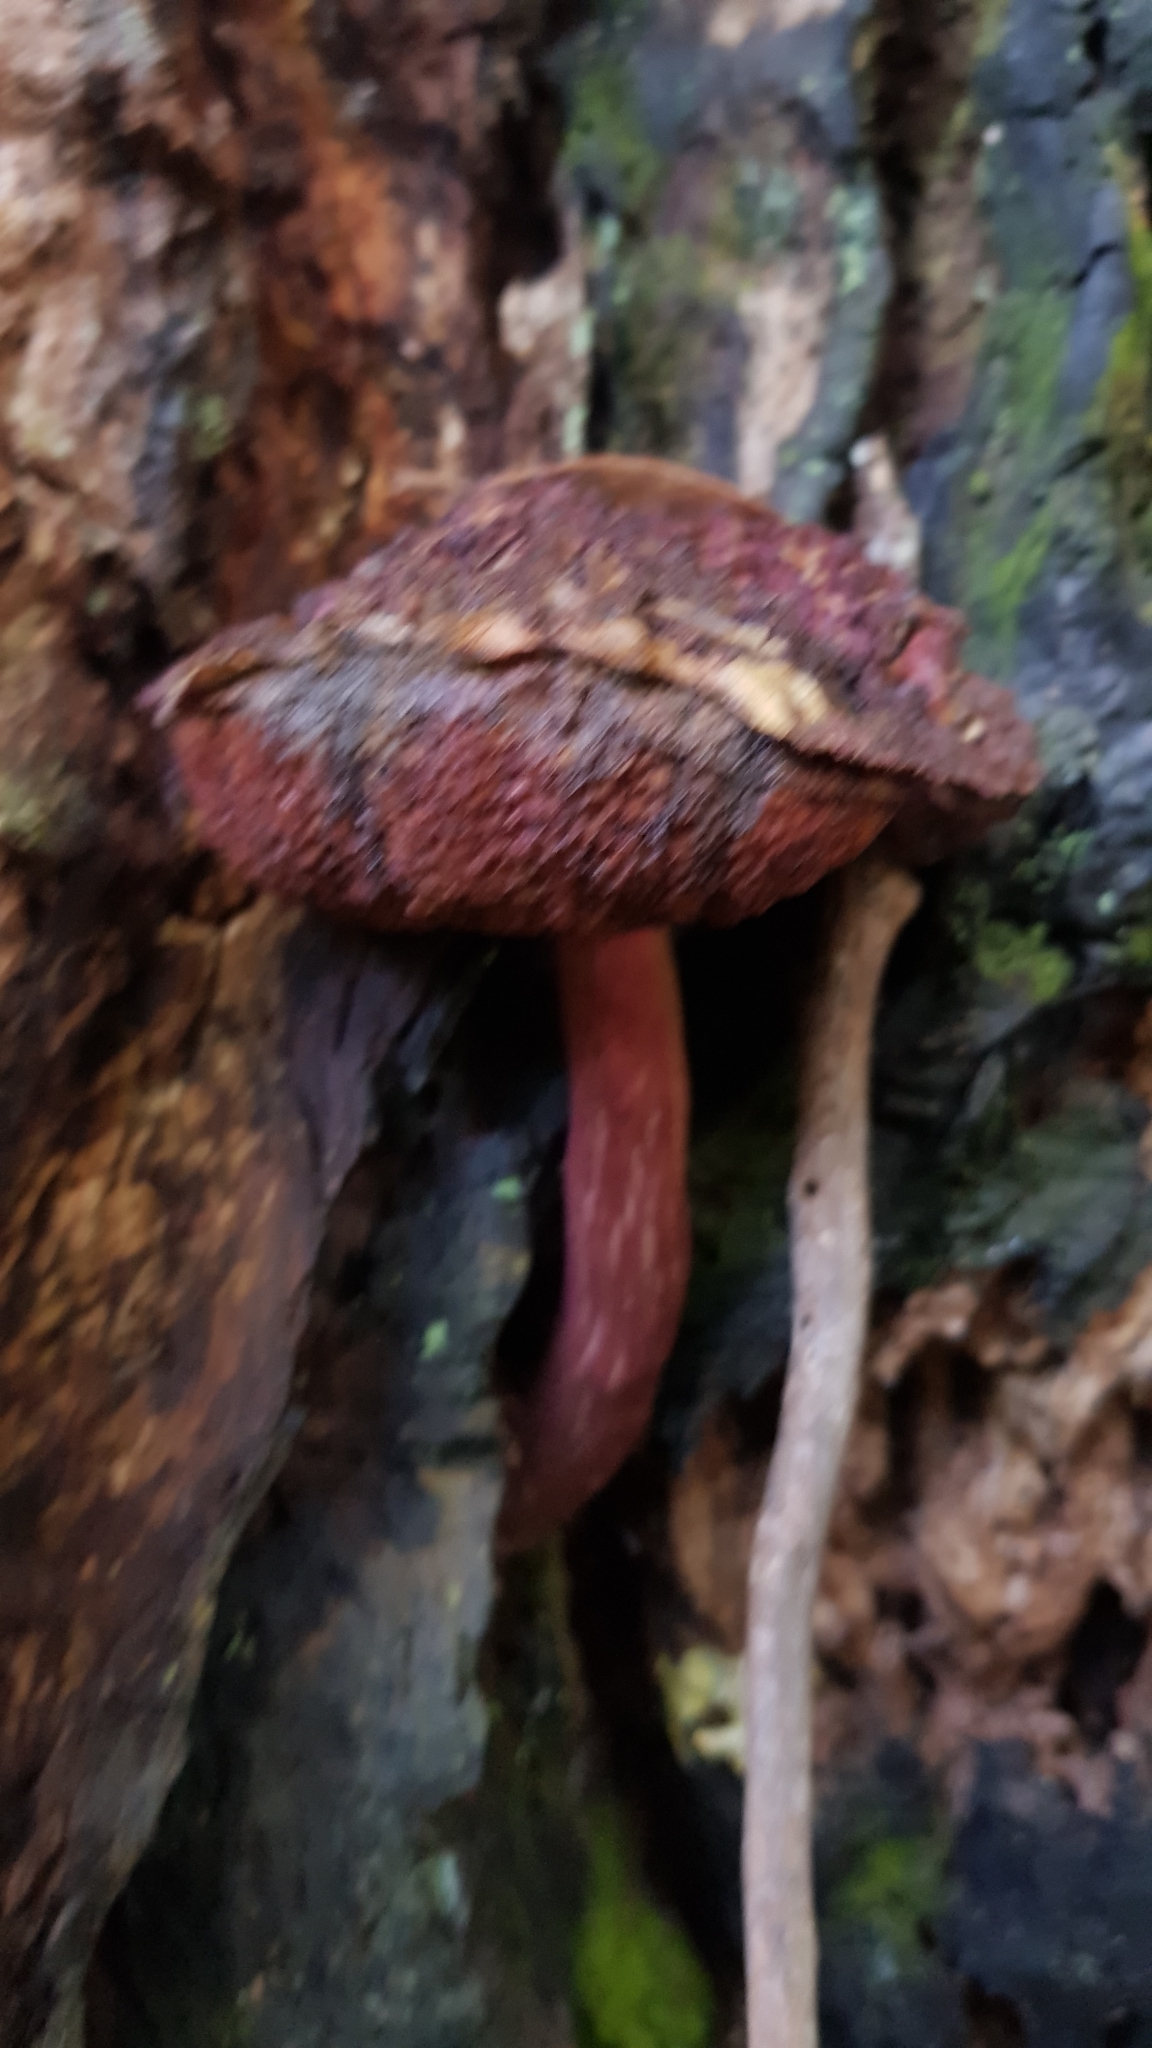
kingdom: Fungi
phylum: Basidiomycota
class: Agaricomycetes
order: Boletales
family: Boletaceae
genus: Boletellus
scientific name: Boletellus emodensis
